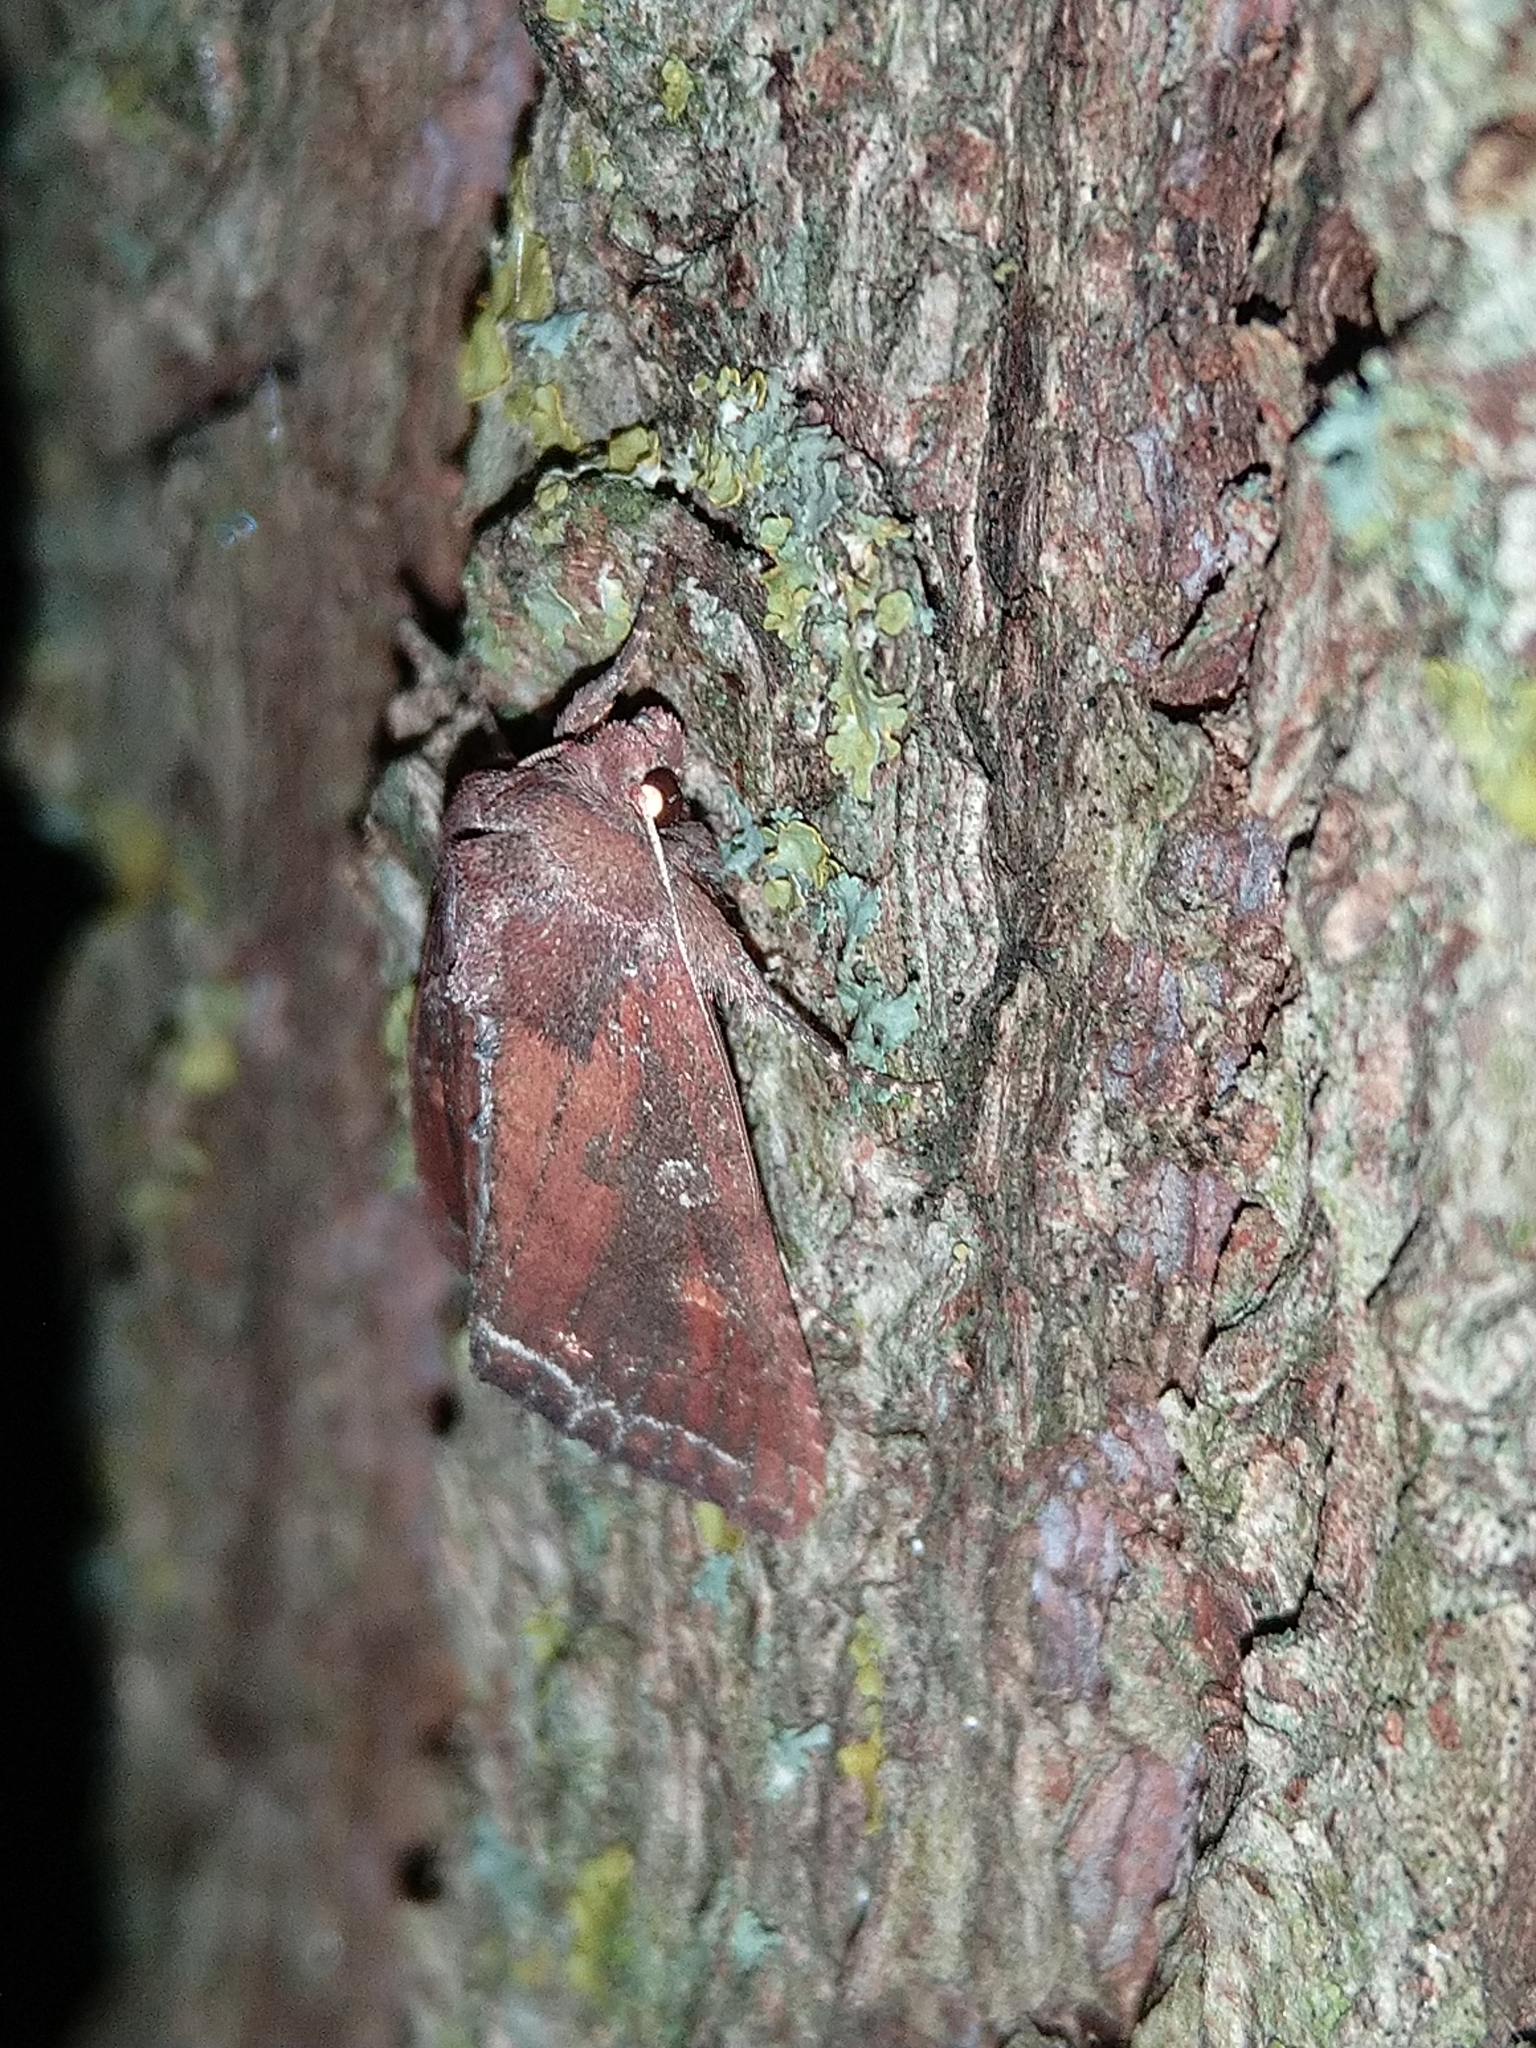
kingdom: Animalia
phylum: Arthropoda
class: Insecta
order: Lepidoptera
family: Noctuidae
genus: Lacanobia
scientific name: Lacanobia oleracea
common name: Bright-line brown-eye
